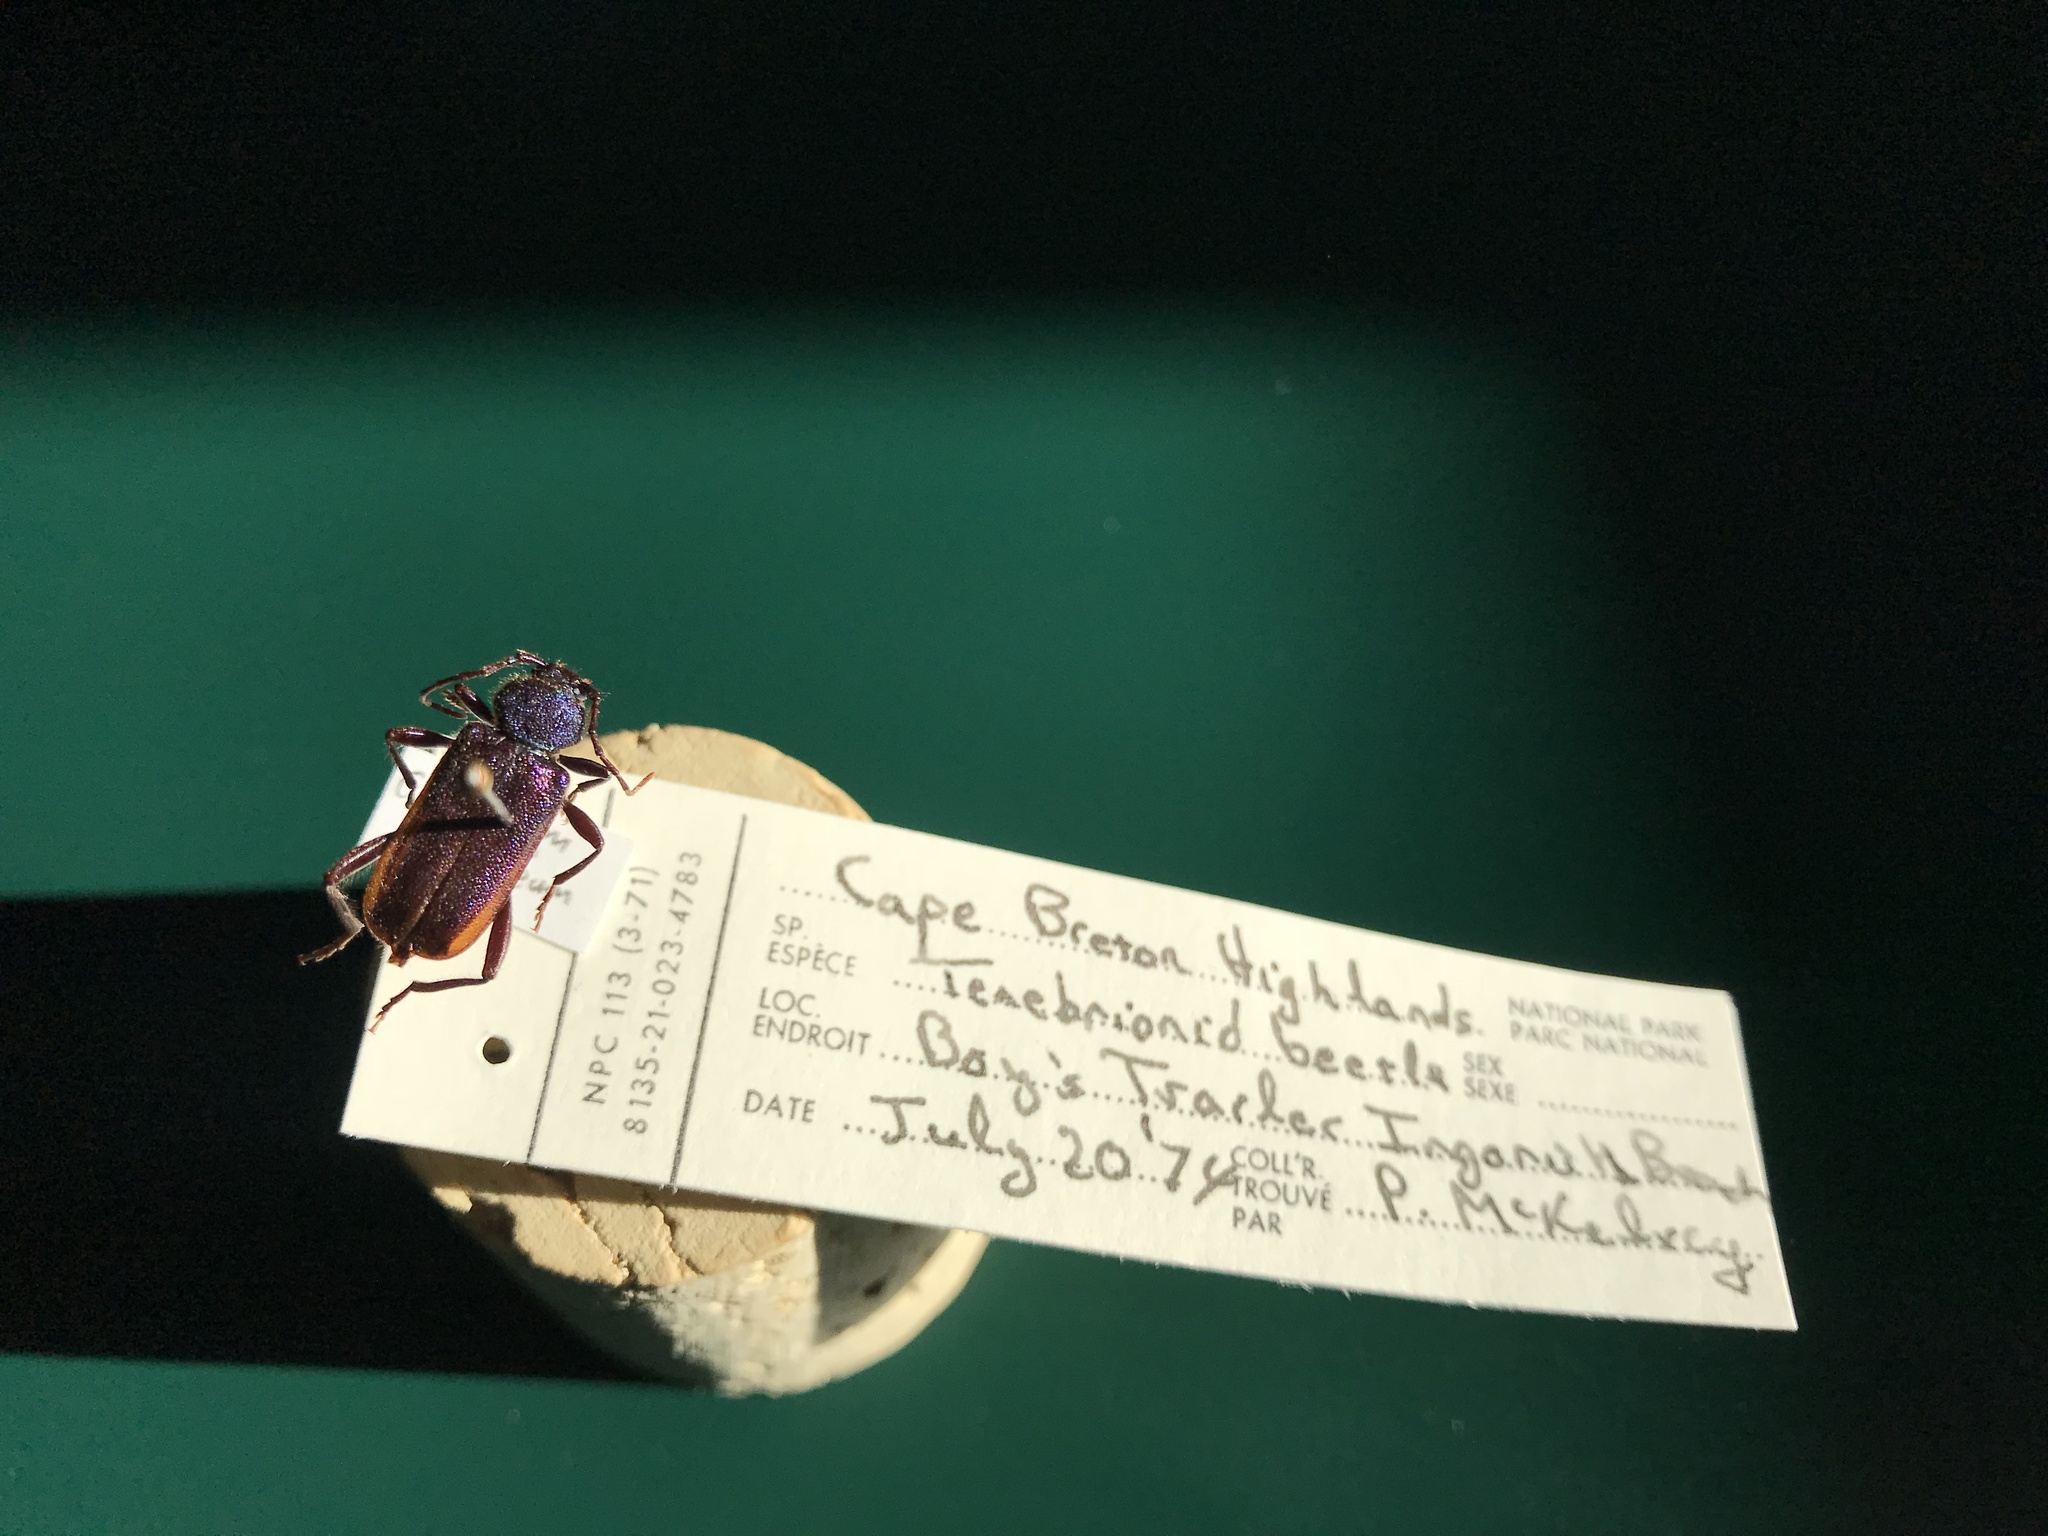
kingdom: Animalia
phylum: Arthropoda
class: Insecta
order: Coleoptera
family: Cerambycidae
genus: Callidium
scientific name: Callidium violaceum
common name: Violet tanbark beetle
